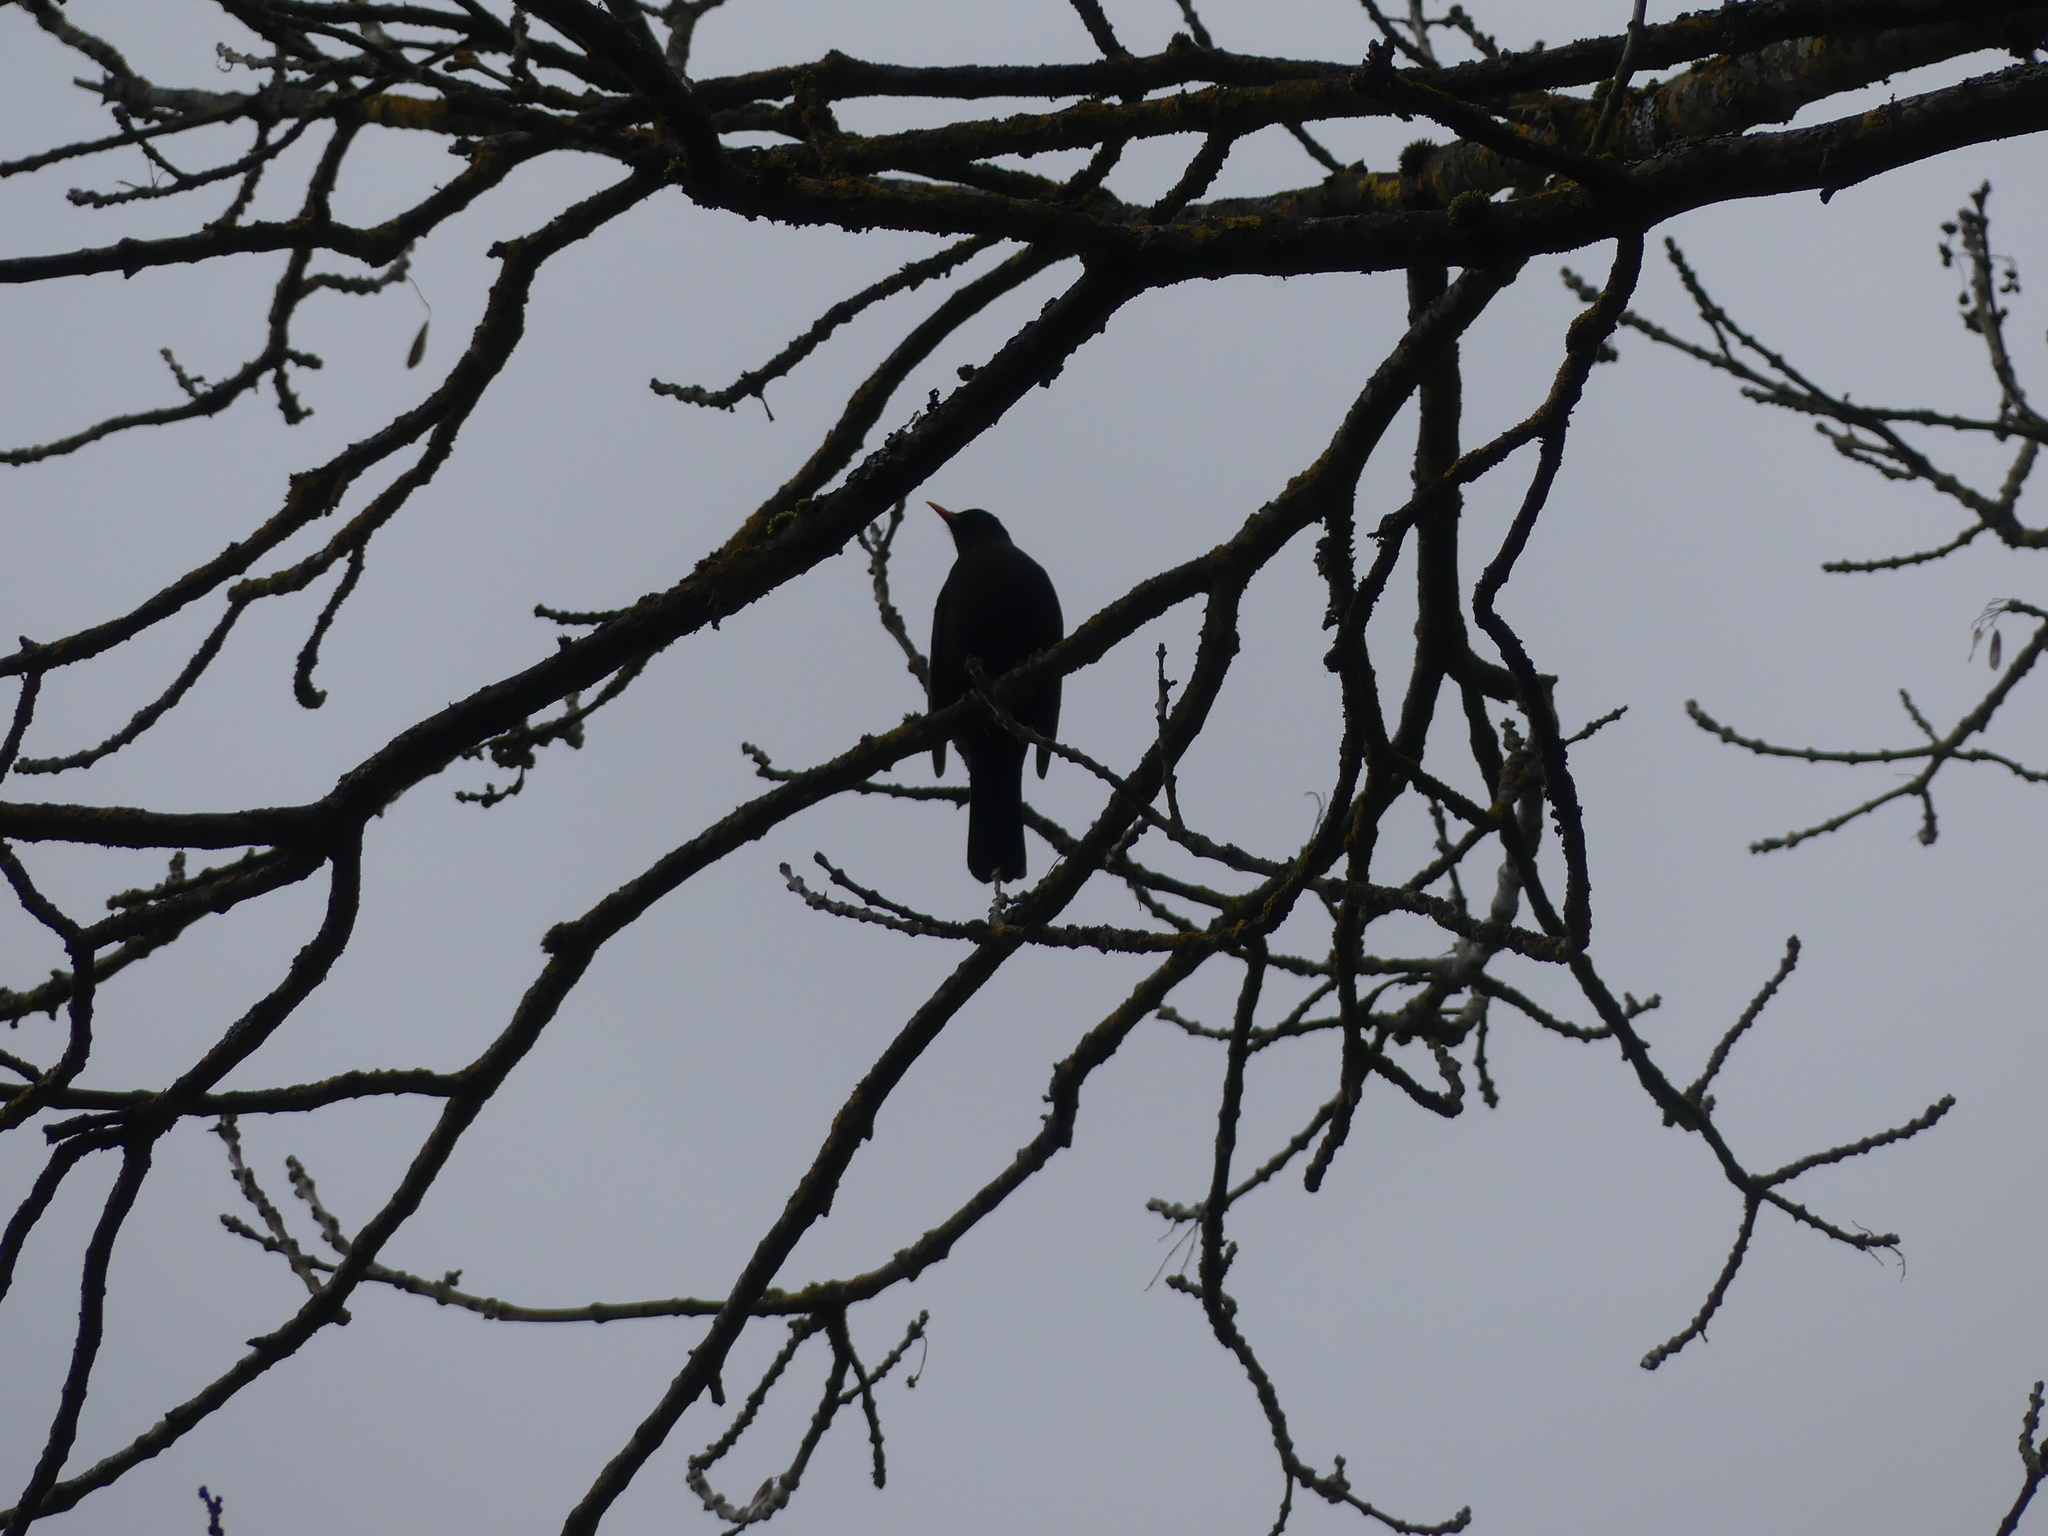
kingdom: Animalia
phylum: Chordata
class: Aves
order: Passeriformes
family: Turdidae
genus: Turdus
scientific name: Turdus merula
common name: Common blackbird
